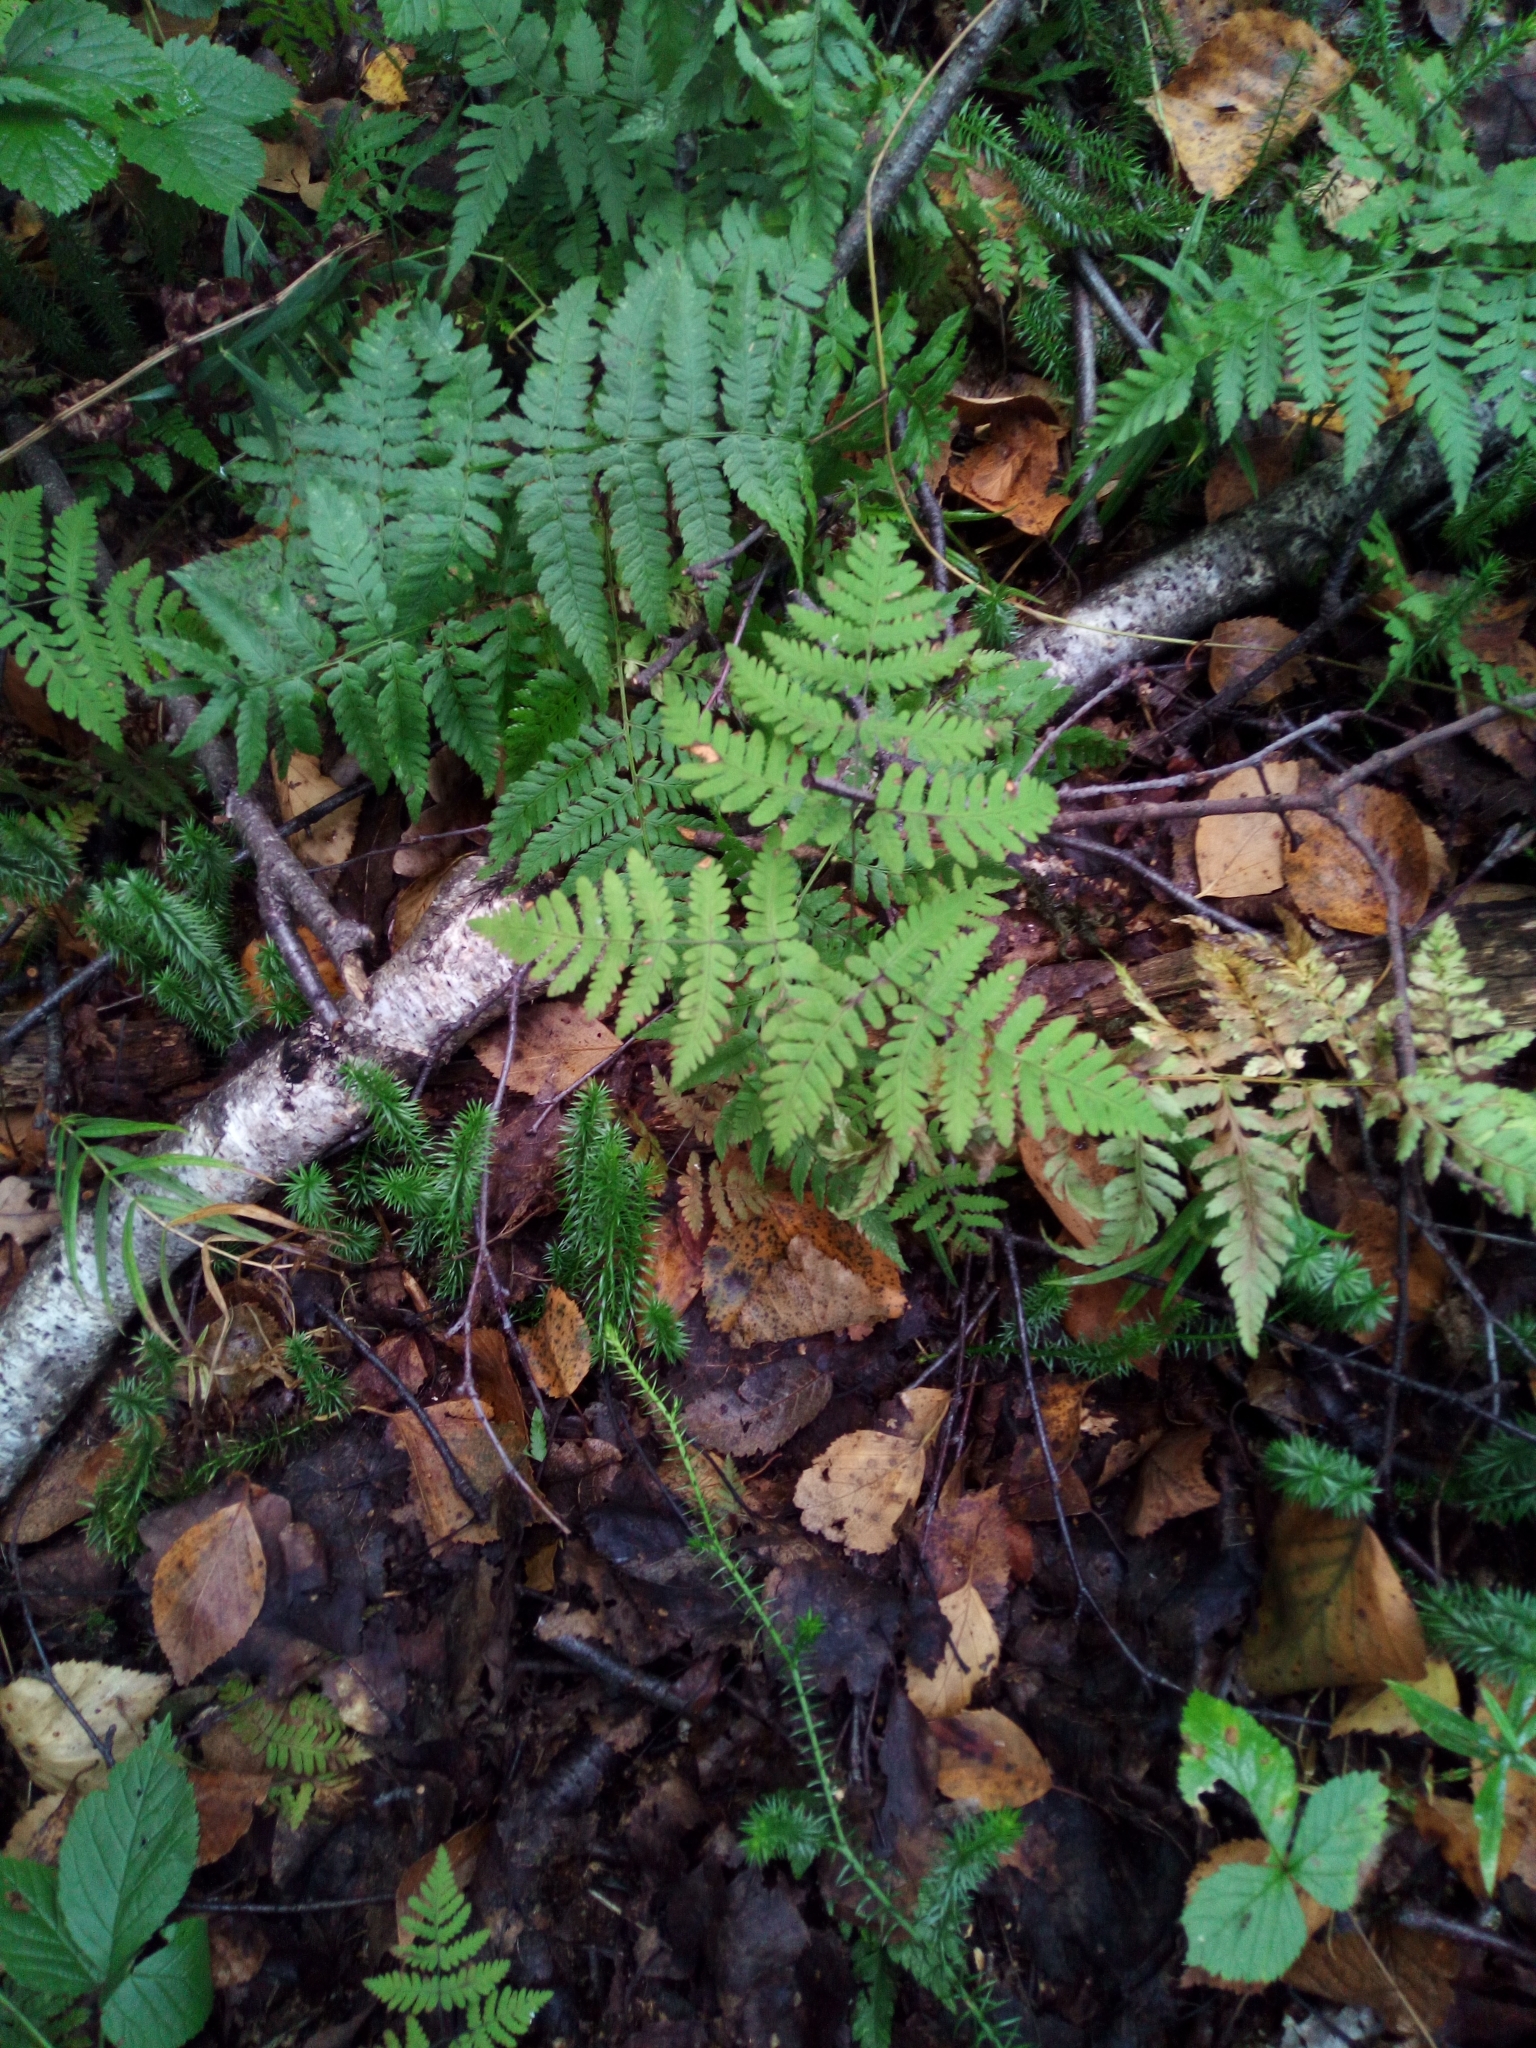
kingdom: Plantae
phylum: Tracheophyta
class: Polypodiopsida
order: Polypodiales
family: Cystopteridaceae
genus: Gymnocarpium
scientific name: Gymnocarpium dryopteris
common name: Oak fern
